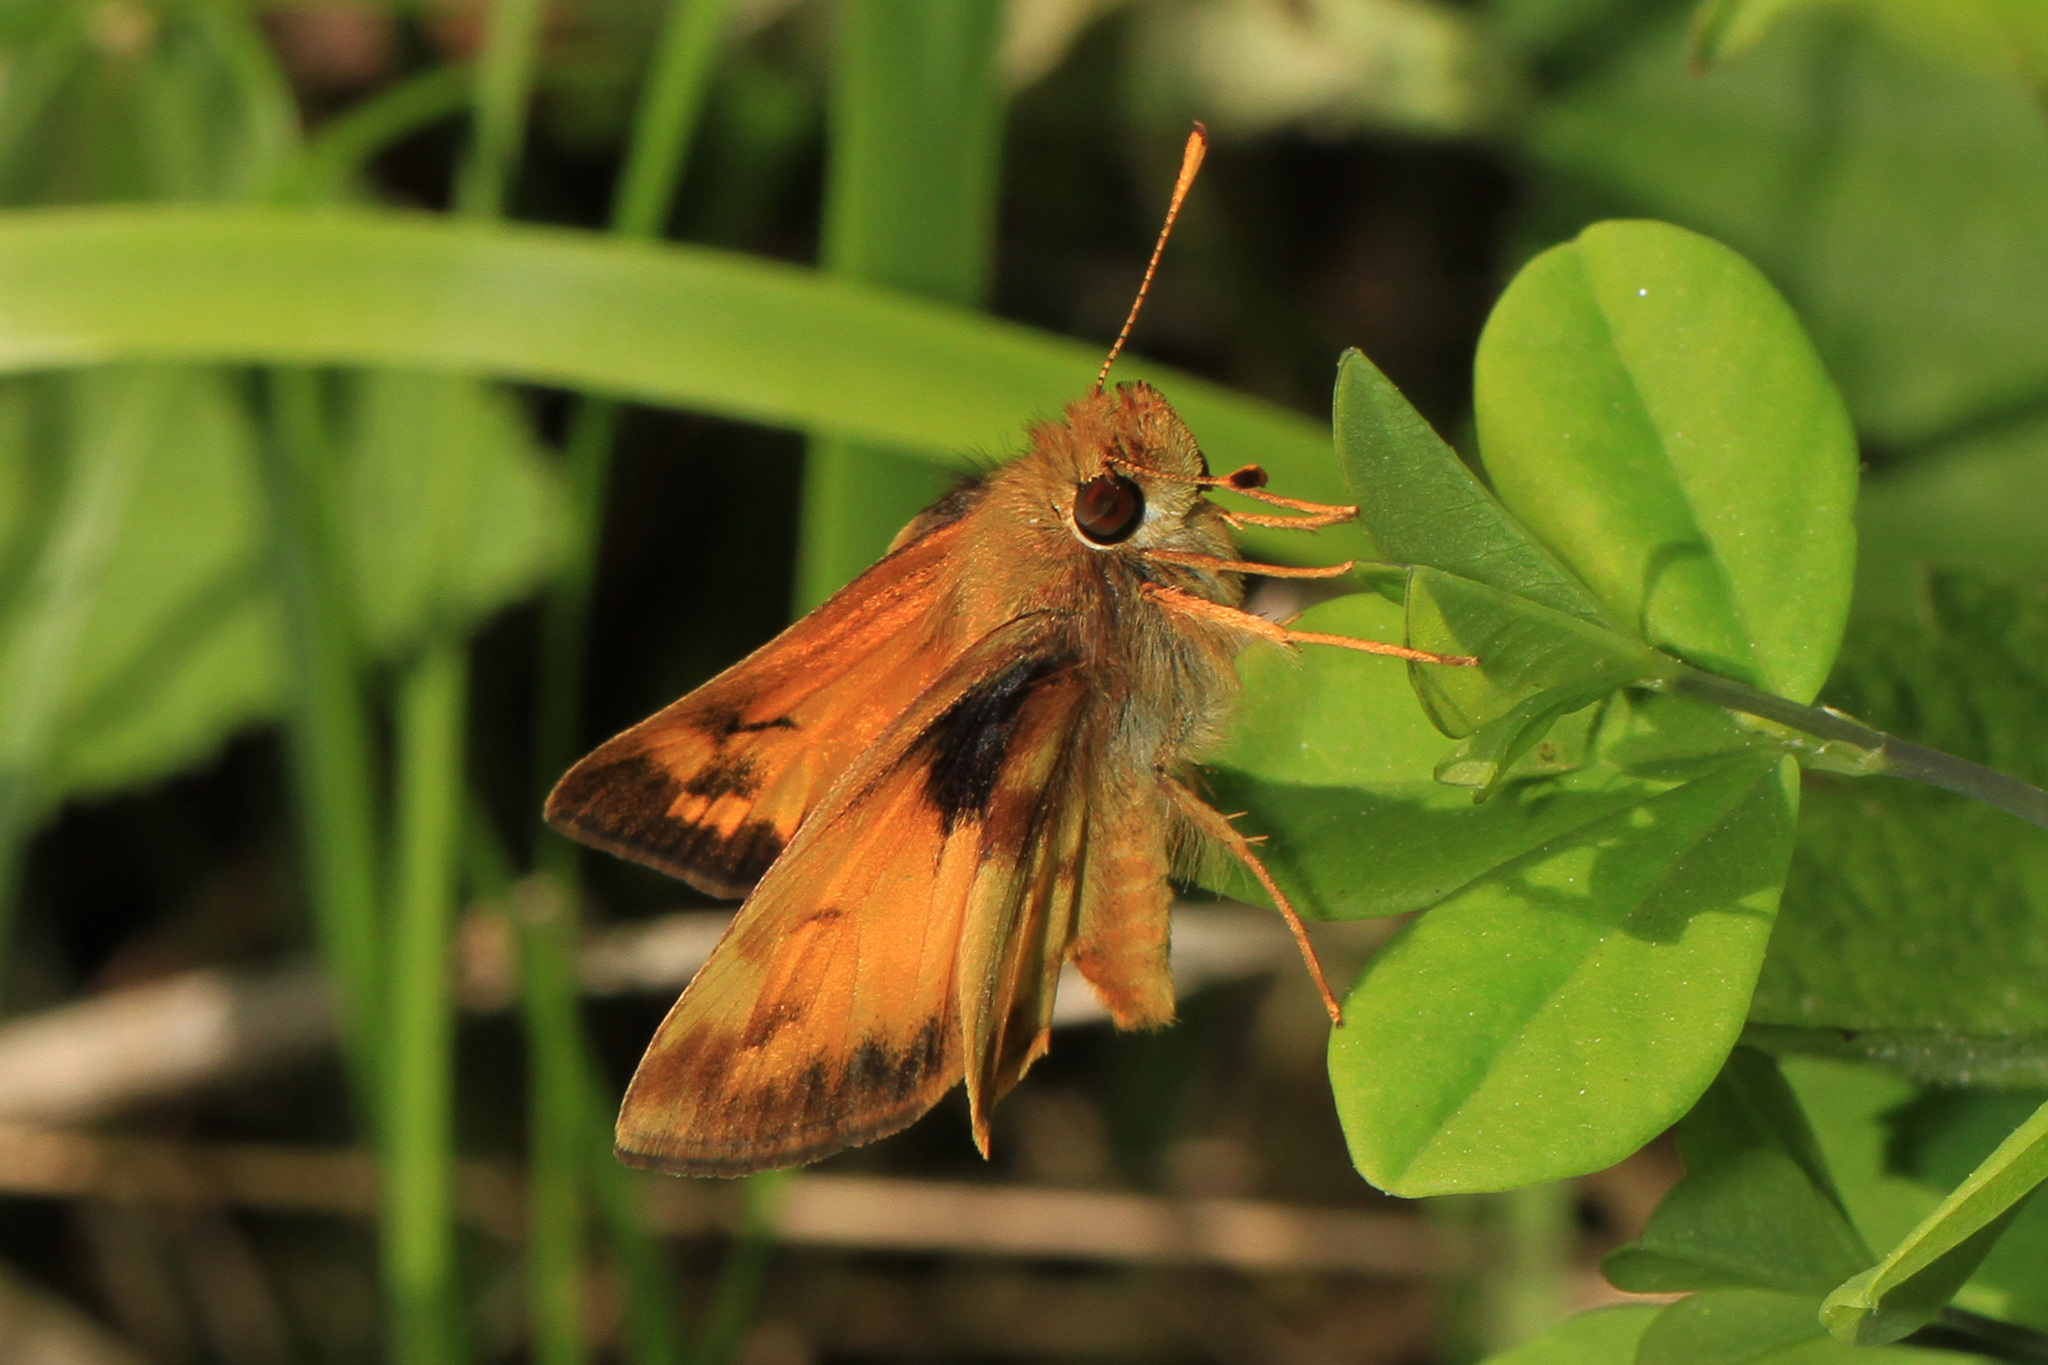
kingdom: Animalia
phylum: Arthropoda
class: Insecta
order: Lepidoptera
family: Hesperiidae
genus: Lon
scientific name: Lon zabulon
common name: Zabulon skipper
